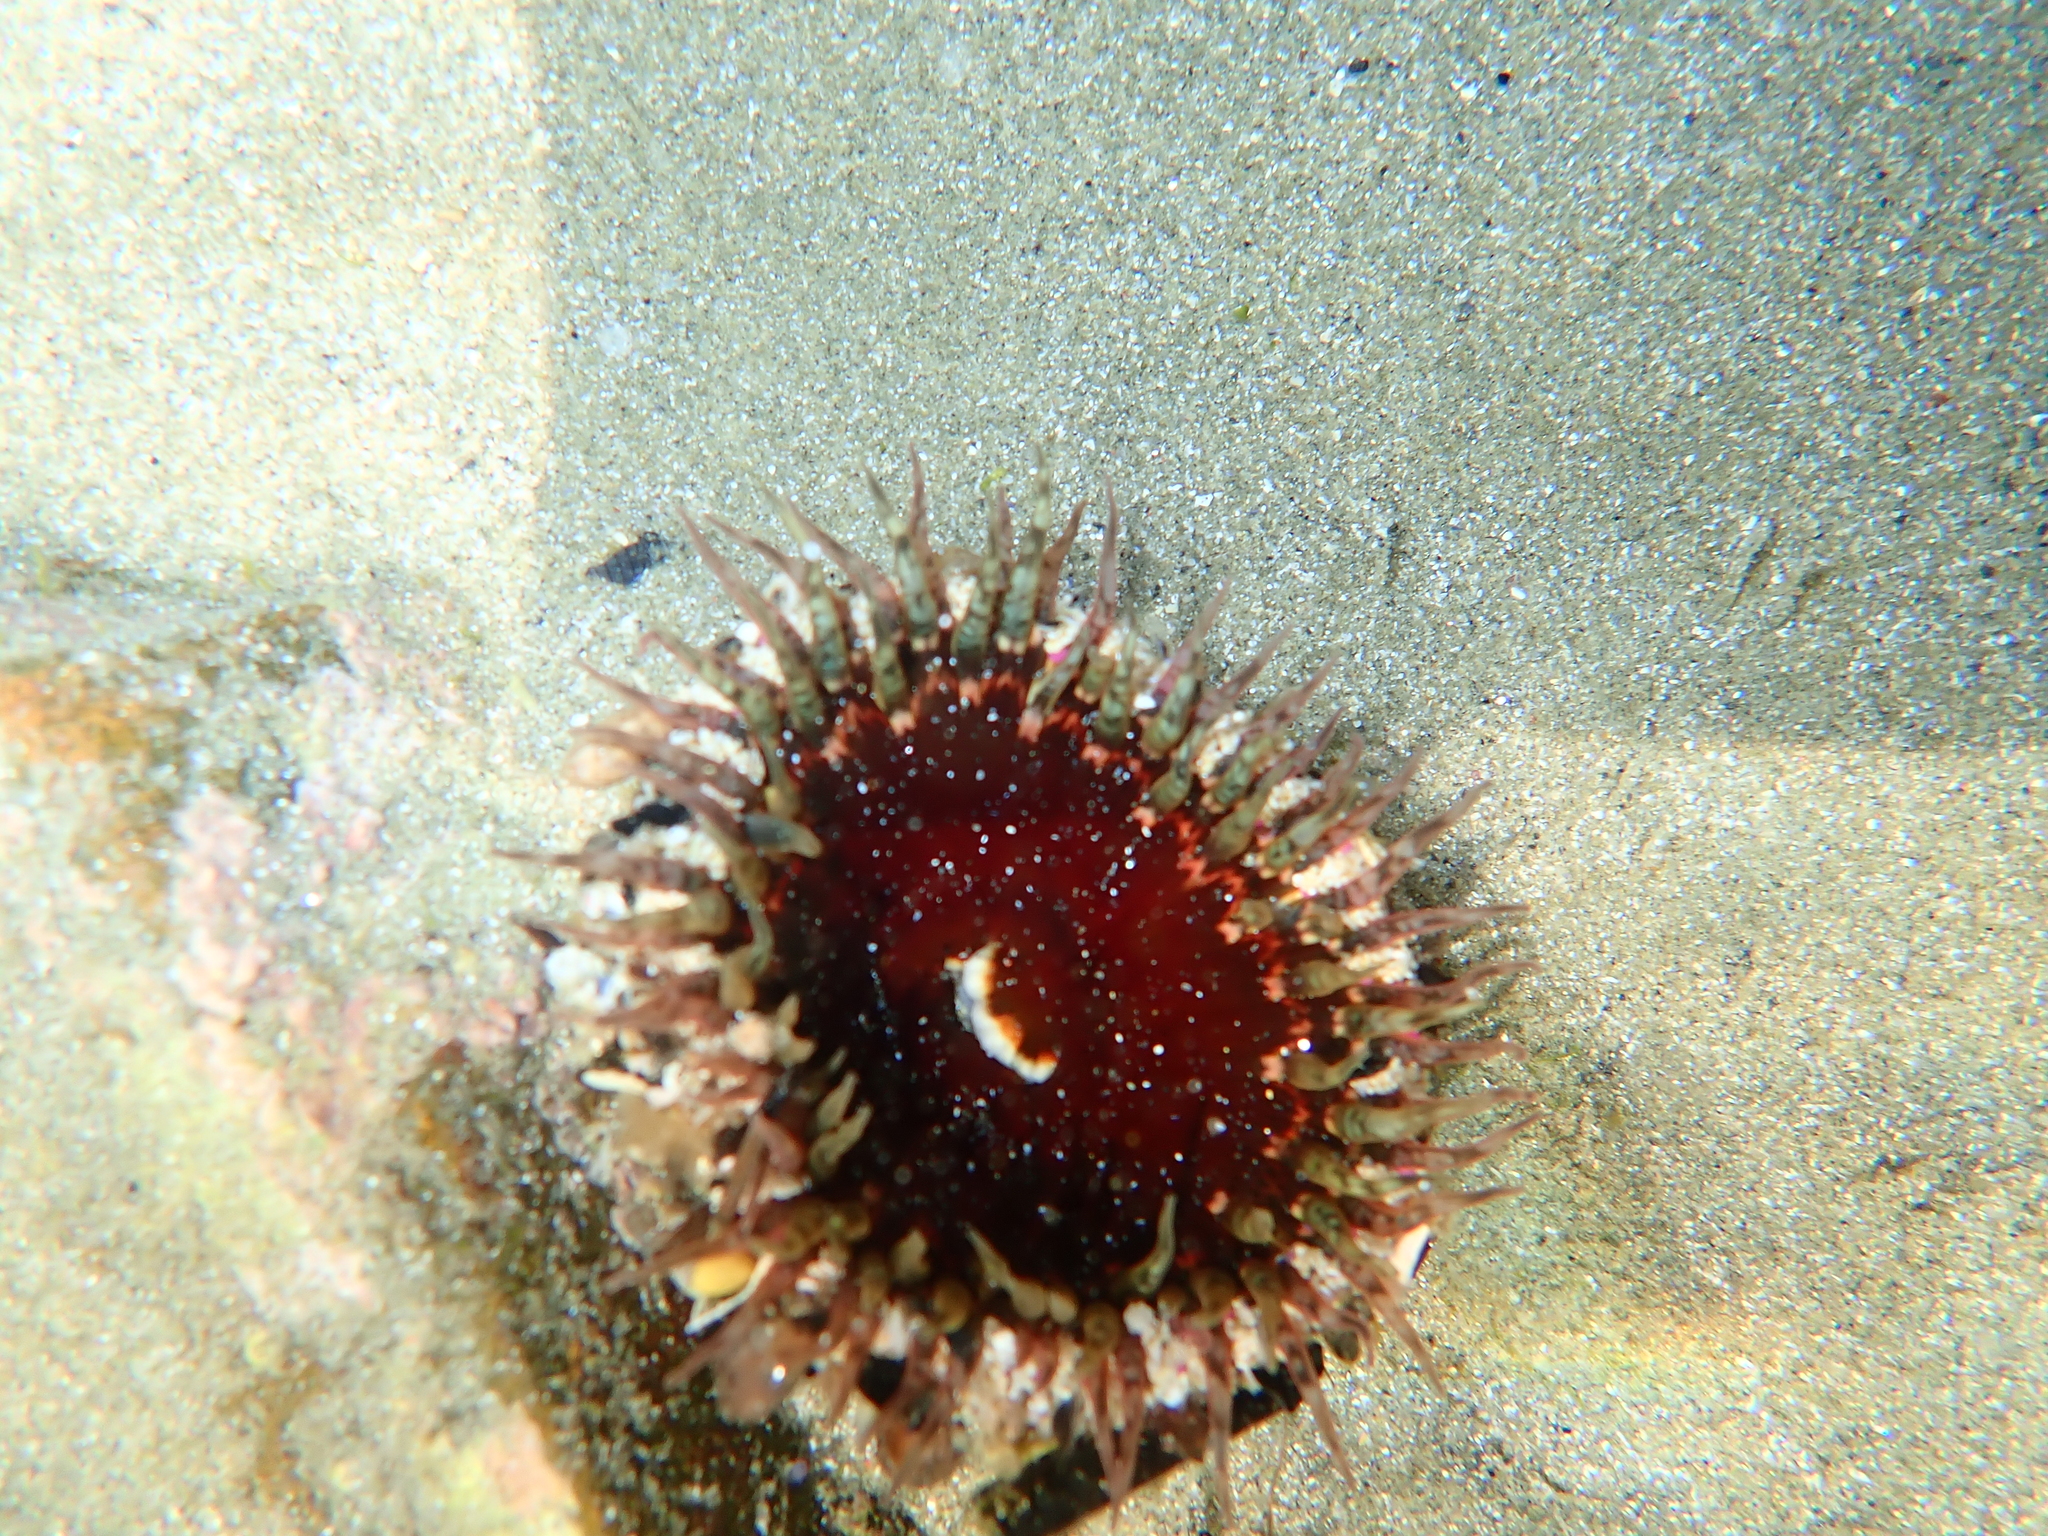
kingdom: Animalia
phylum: Cnidaria
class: Anthozoa
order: Actiniaria
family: Actiniidae
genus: Oulactis
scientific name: Oulactis muscosa
